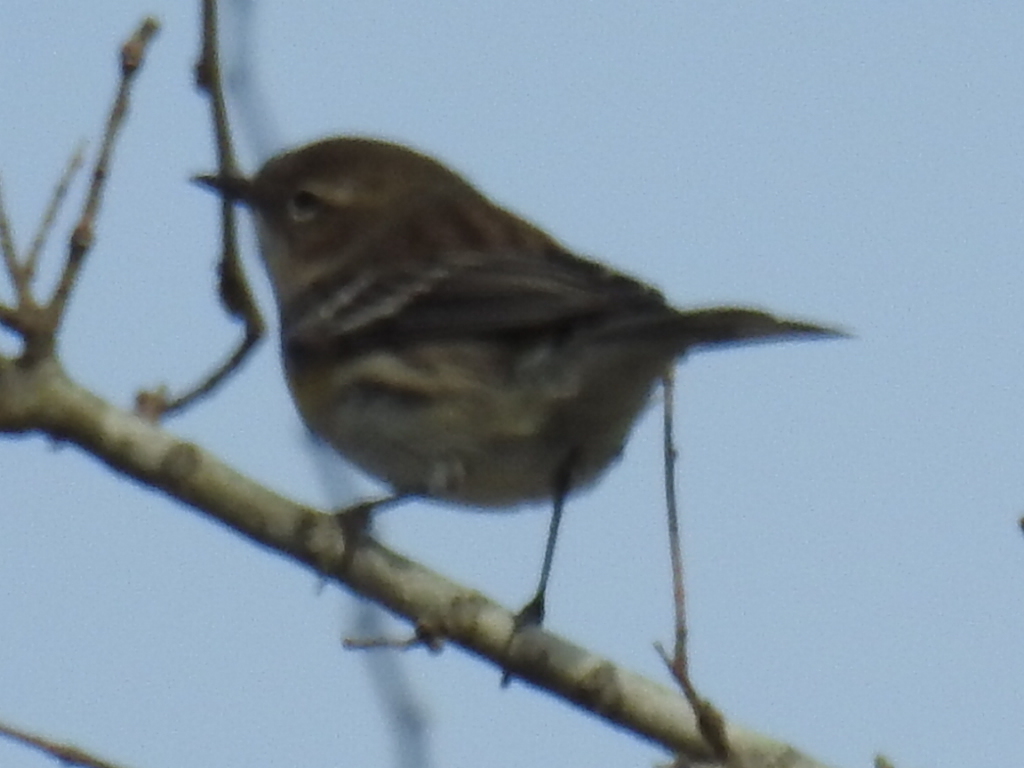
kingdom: Animalia
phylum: Chordata
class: Aves
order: Passeriformes
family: Parulidae
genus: Setophaga
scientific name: Setophaga coronata
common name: Myrtle warbler
